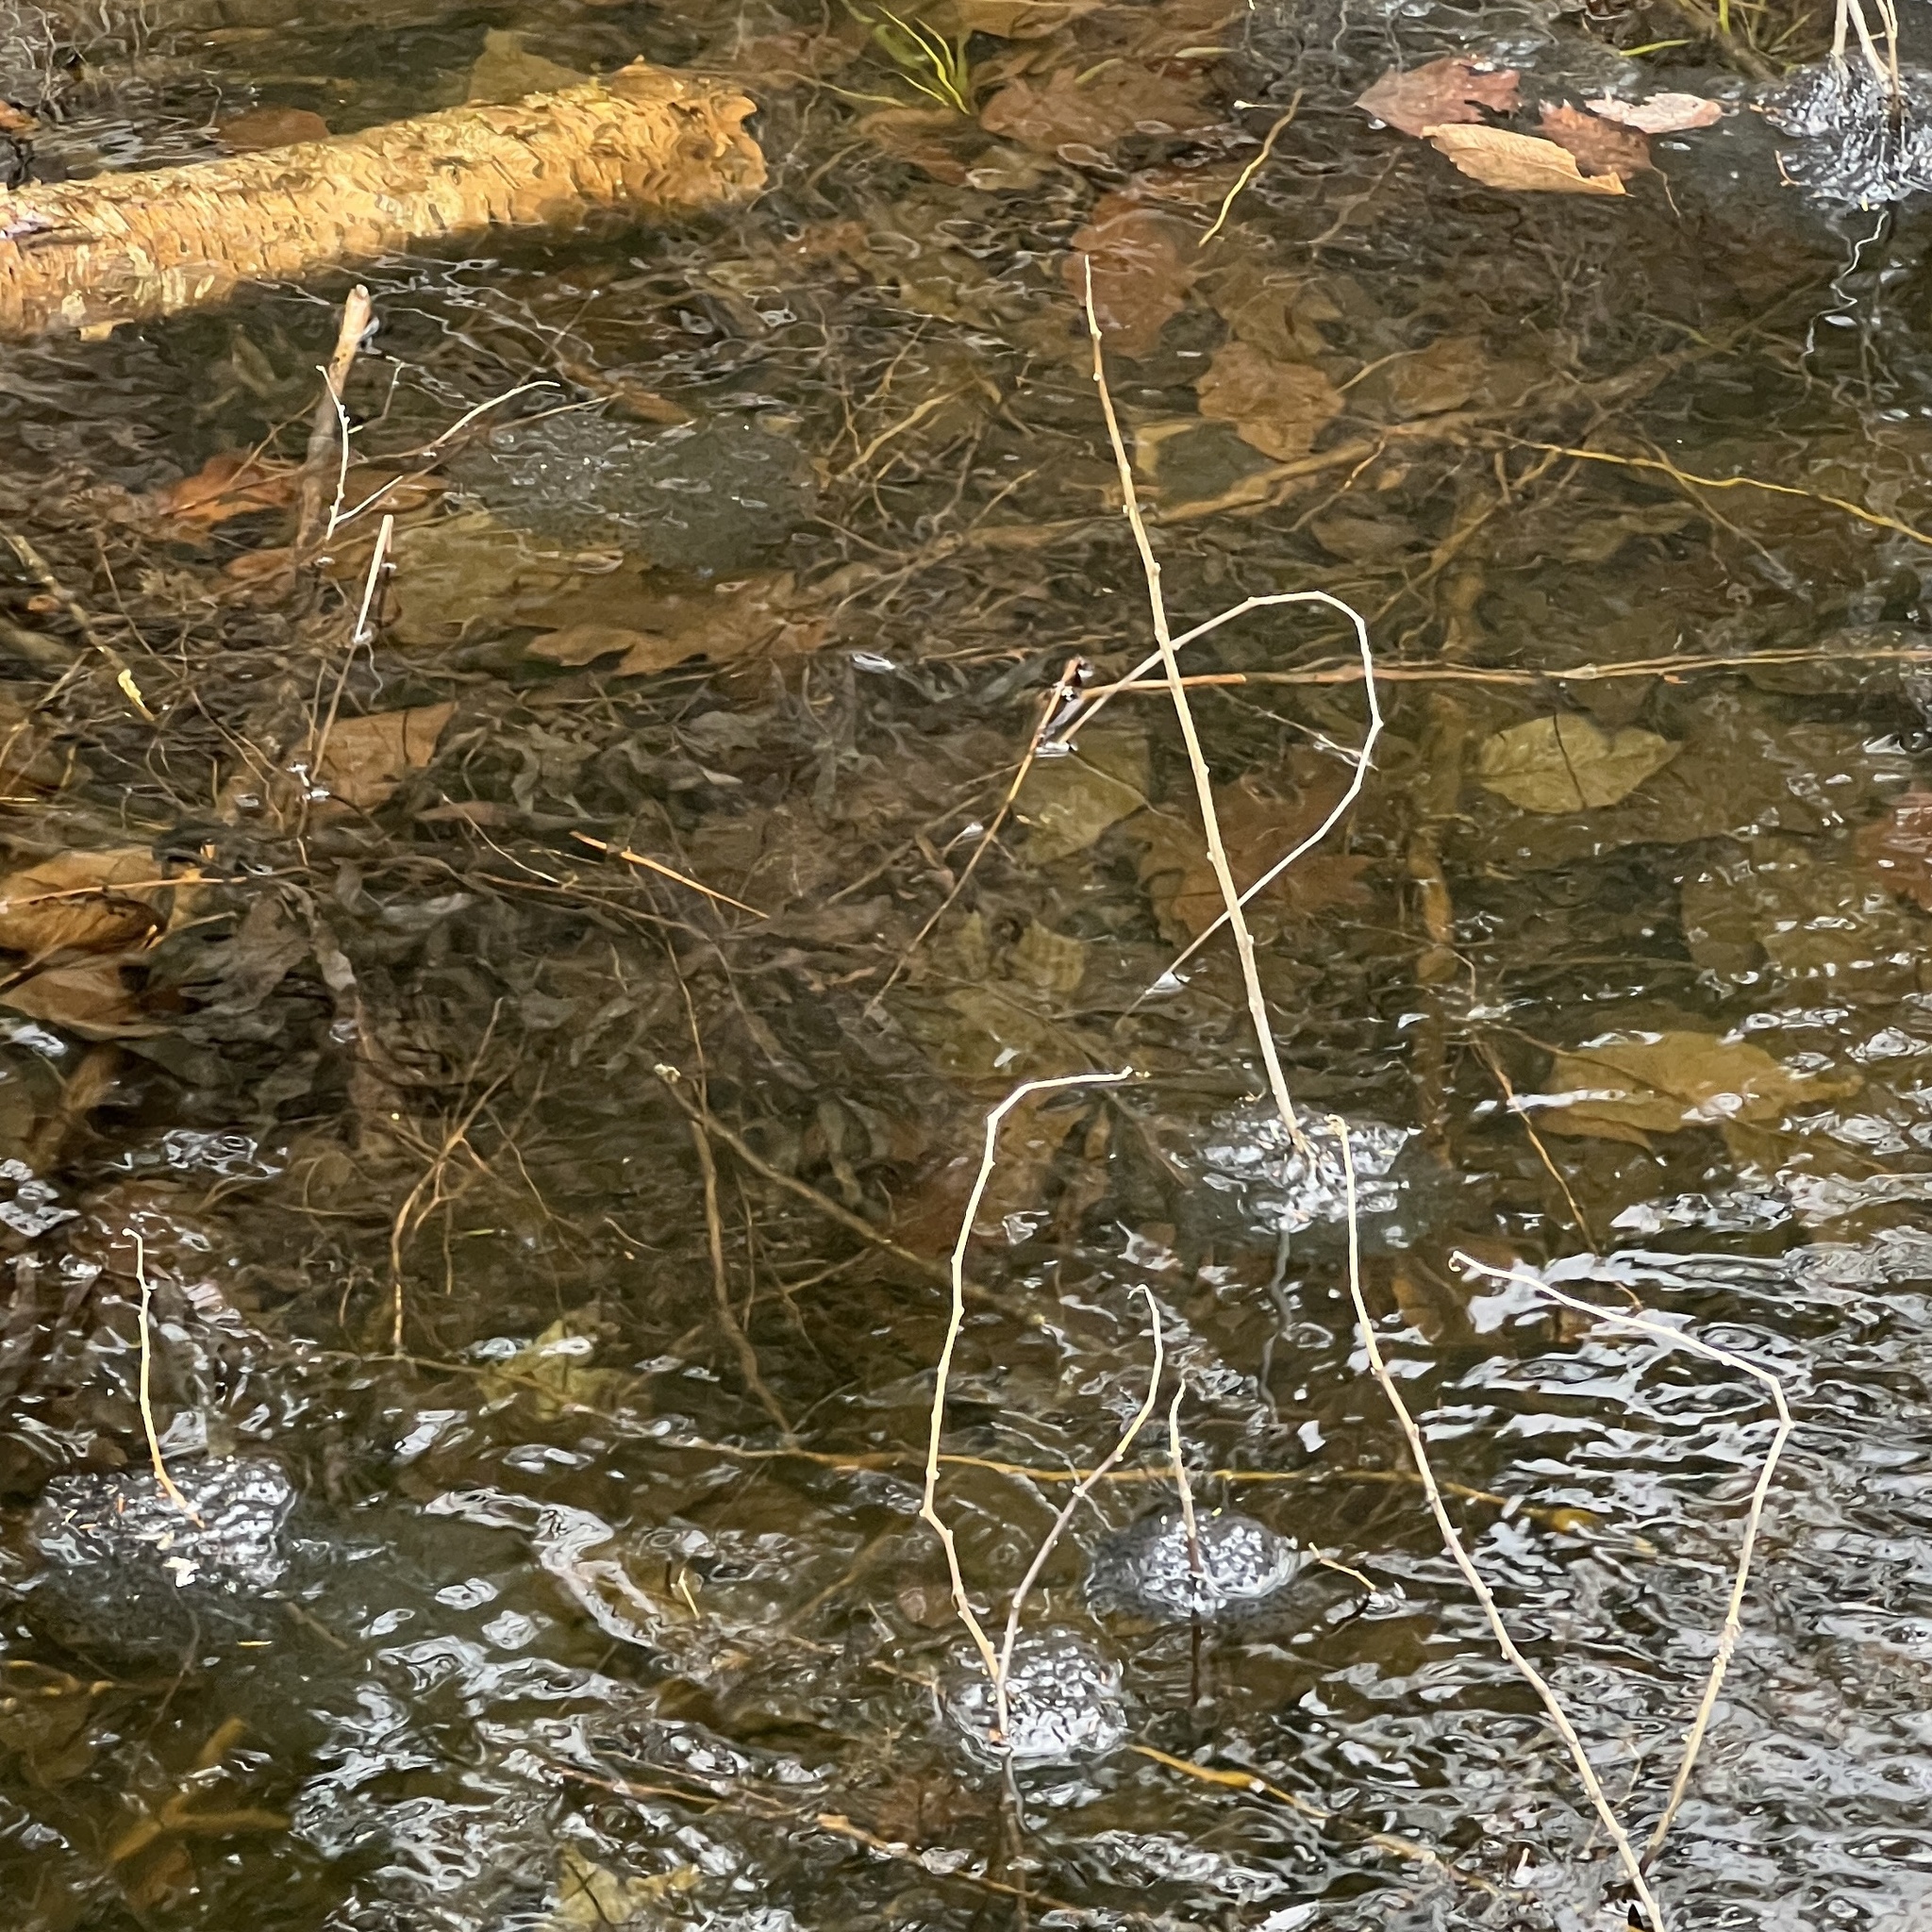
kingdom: Animalia
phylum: Chordata
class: Amphibia
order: Anura
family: Ranidae
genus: Lithobates
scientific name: Lithobates sylvaticus
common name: Wood frog
